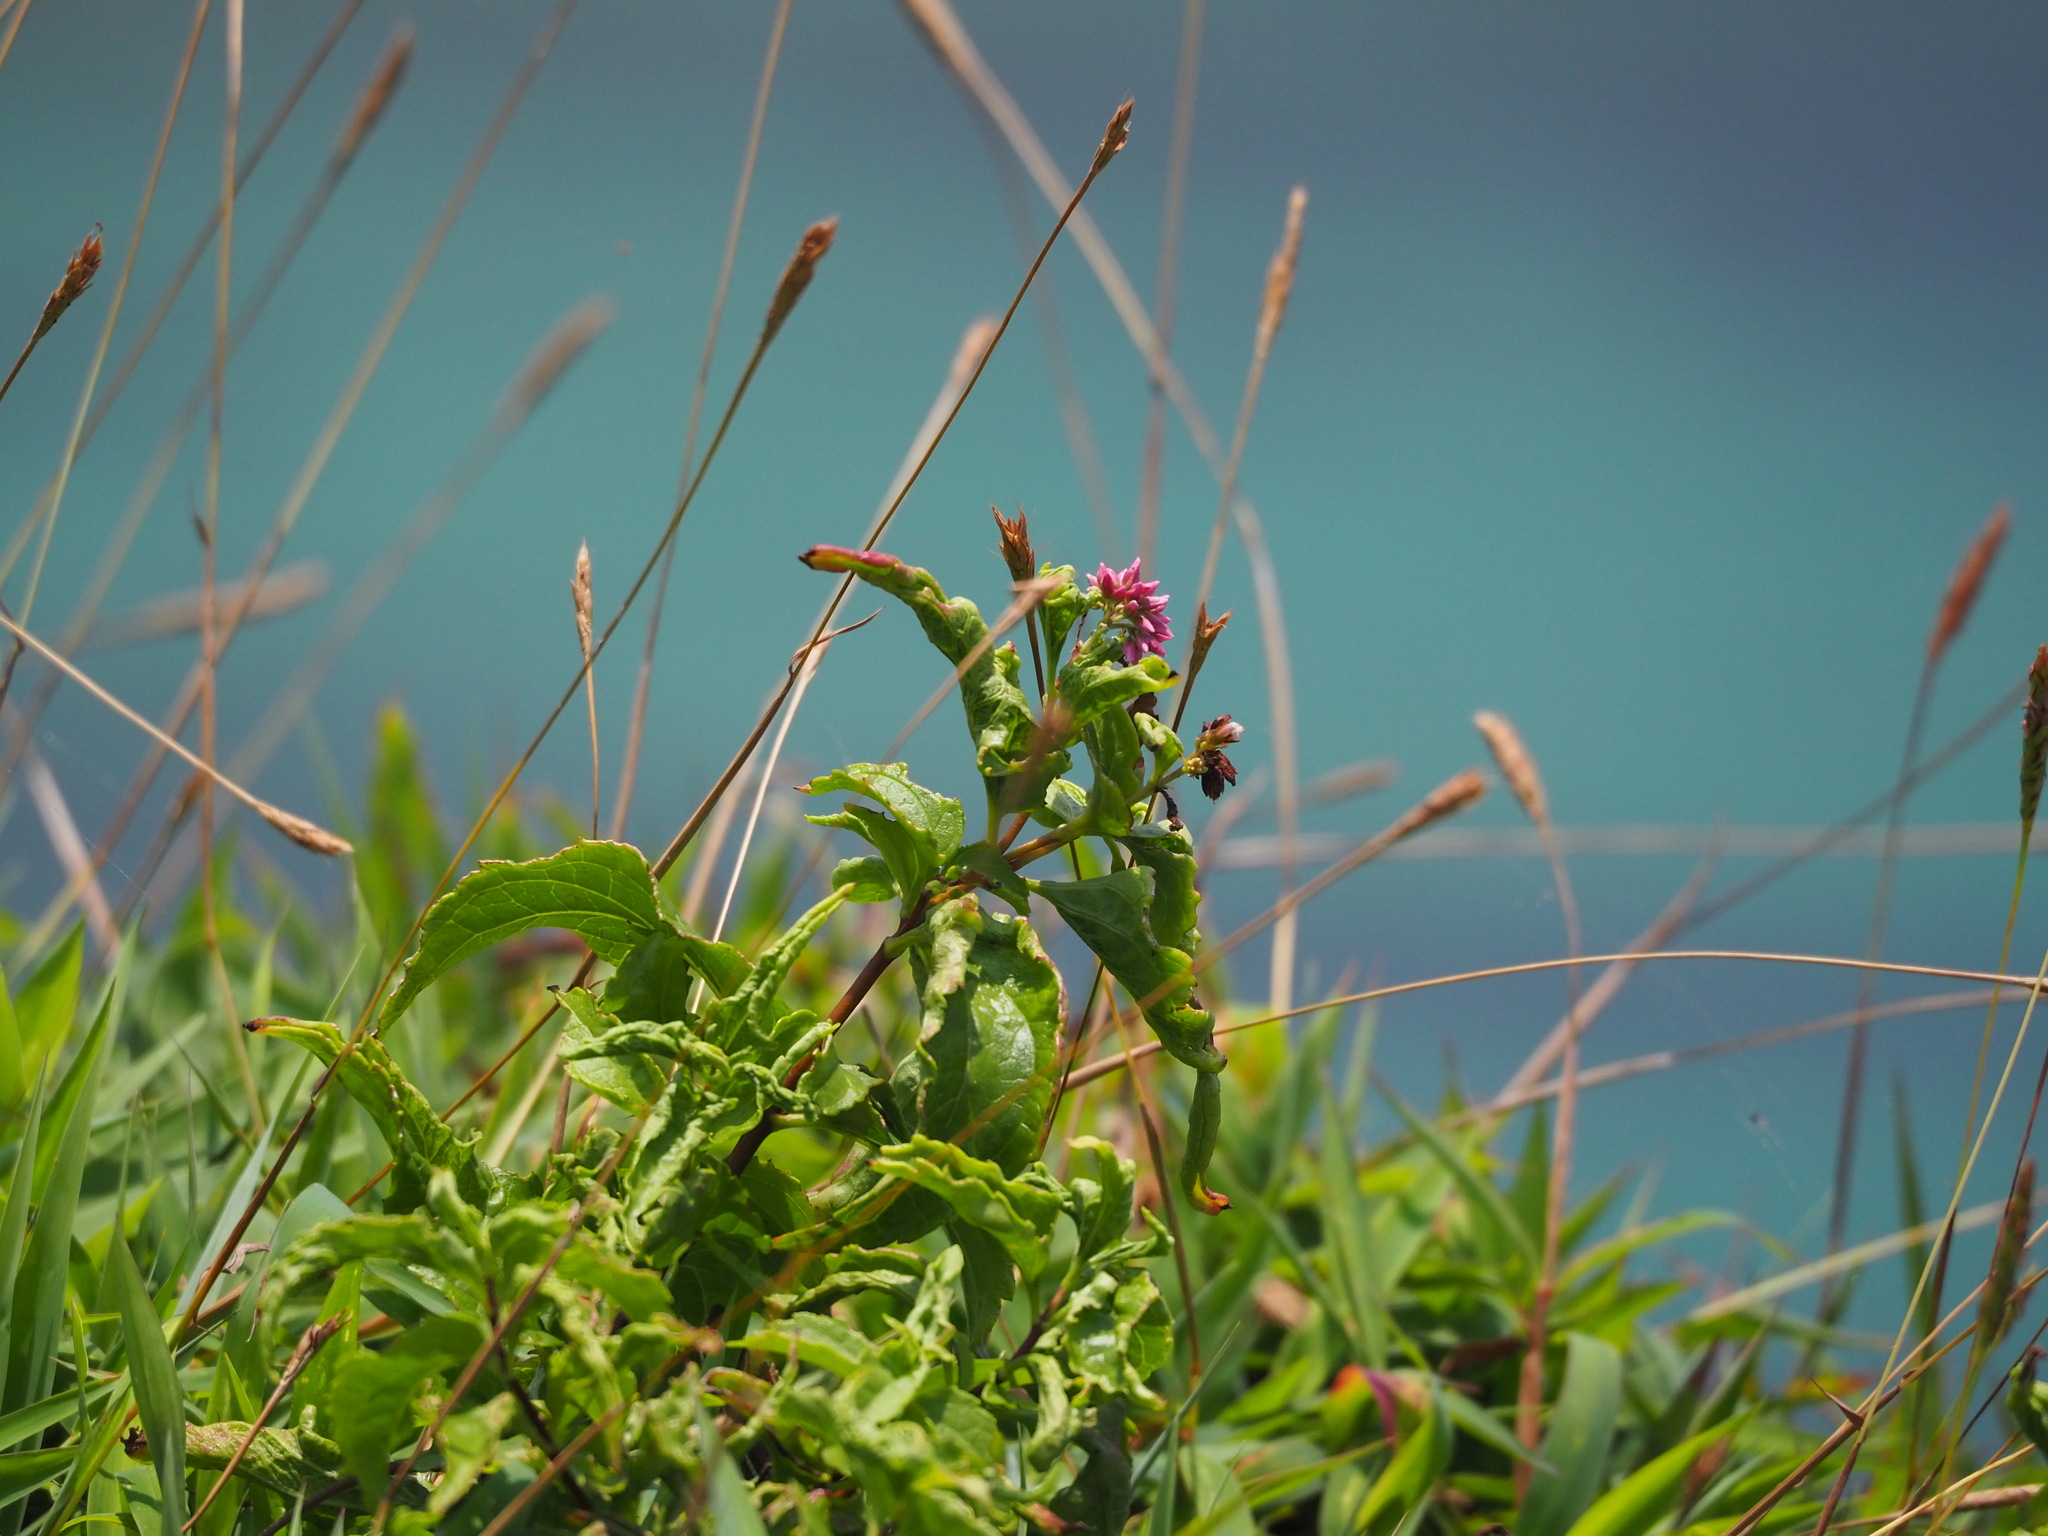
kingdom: Plantae
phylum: Tracheophyta
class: Magnoliopsida
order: Asterales
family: Asteraceae
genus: Eupatorium
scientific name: Eupatorium luchuense
